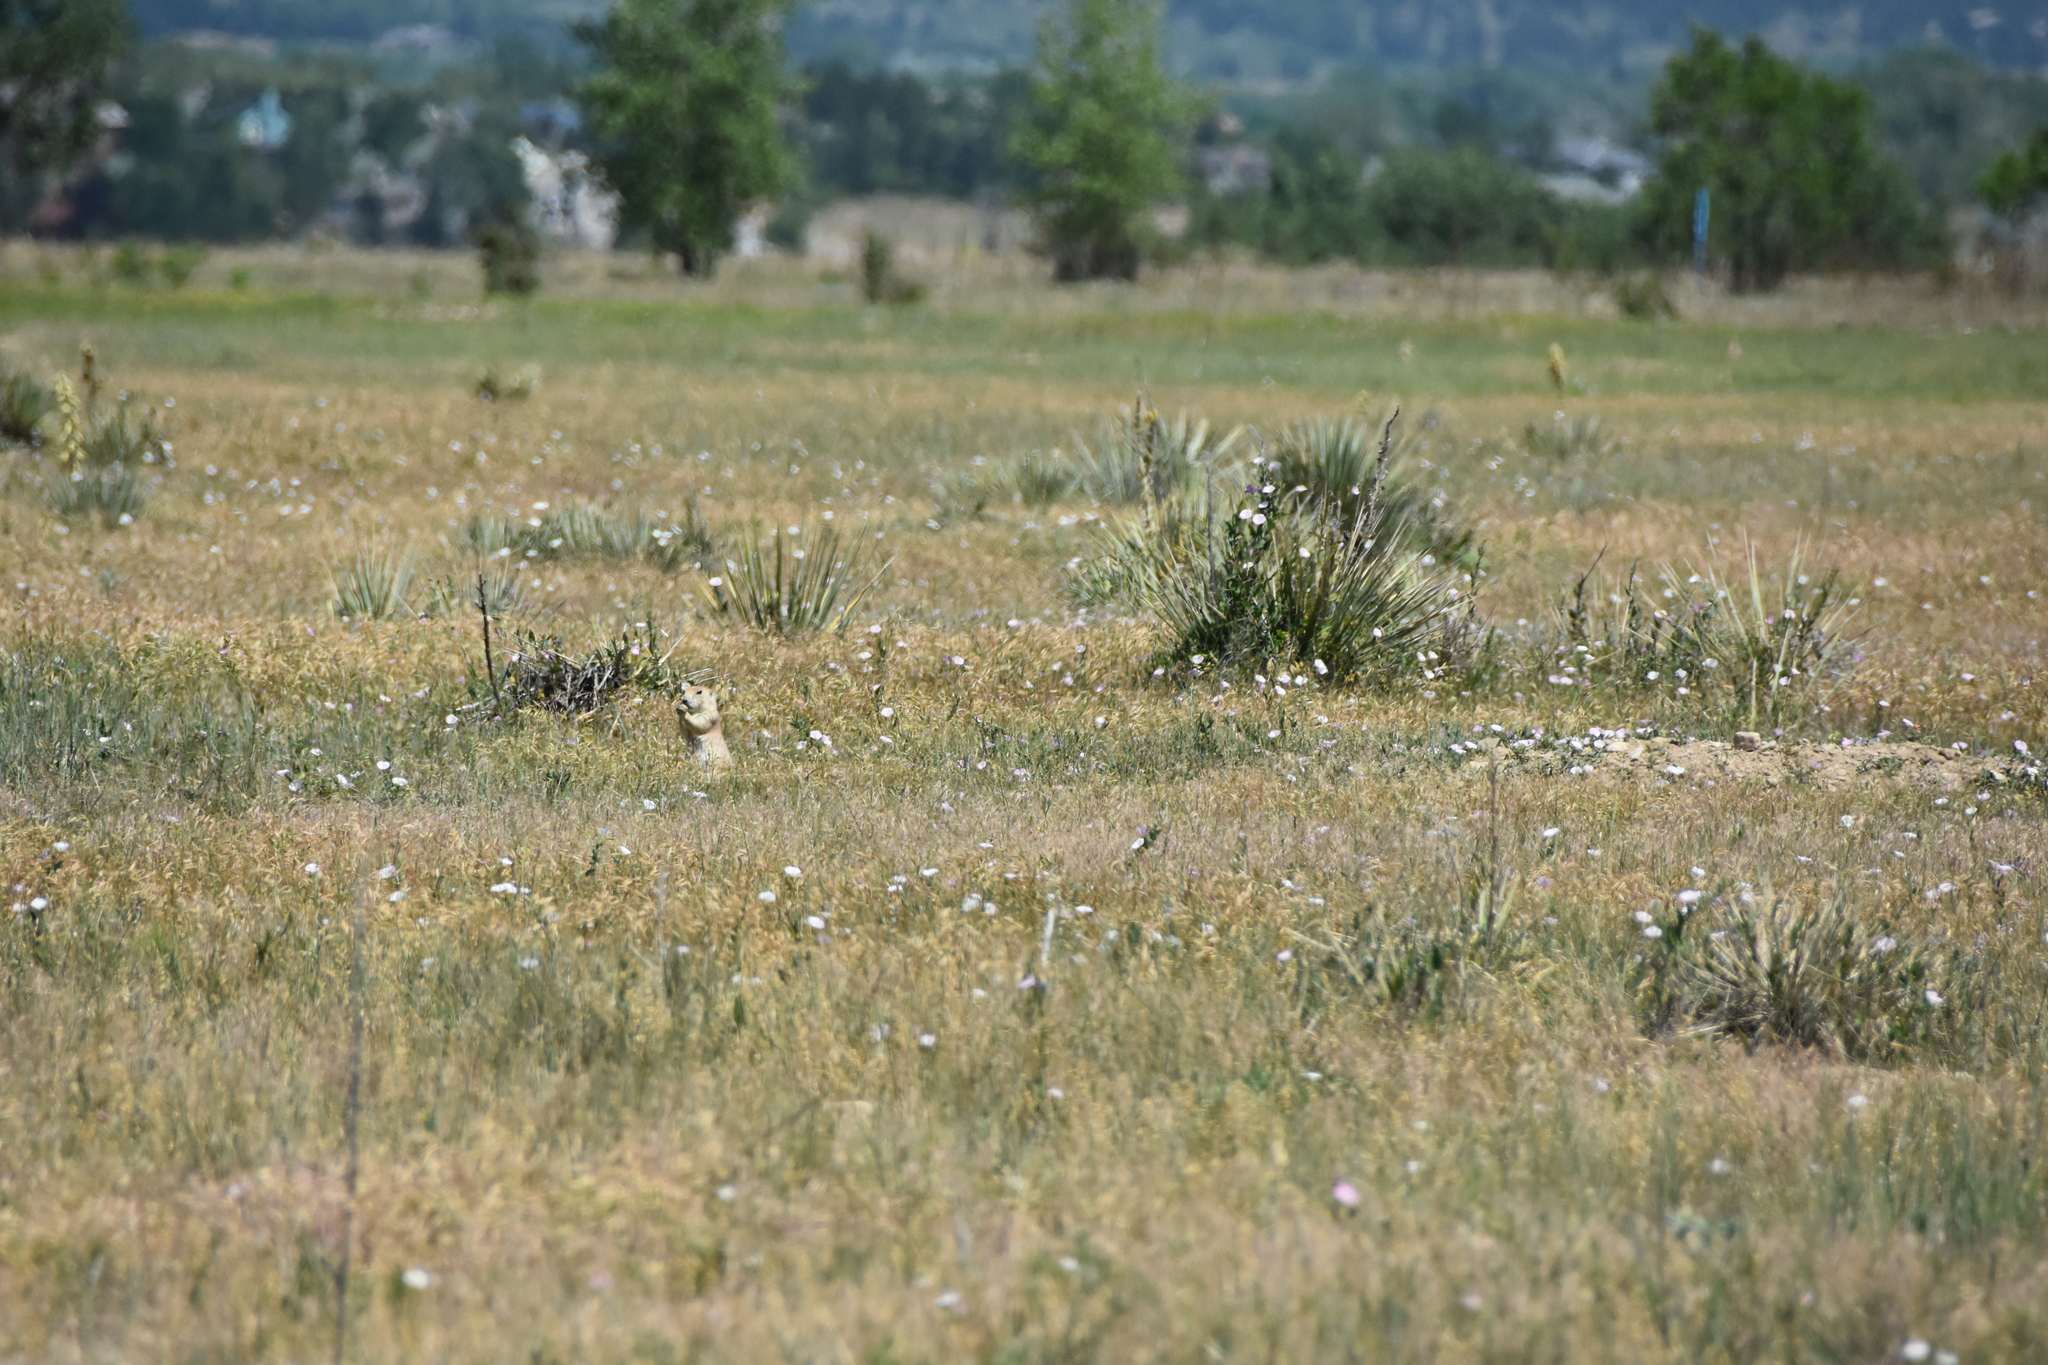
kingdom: Animalia
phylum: Chordata
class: Mammalia
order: Rodentia
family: Sciuridae
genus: Cynomys
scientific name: Cynomys ludovicianus
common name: Black-tailed prairie dog
